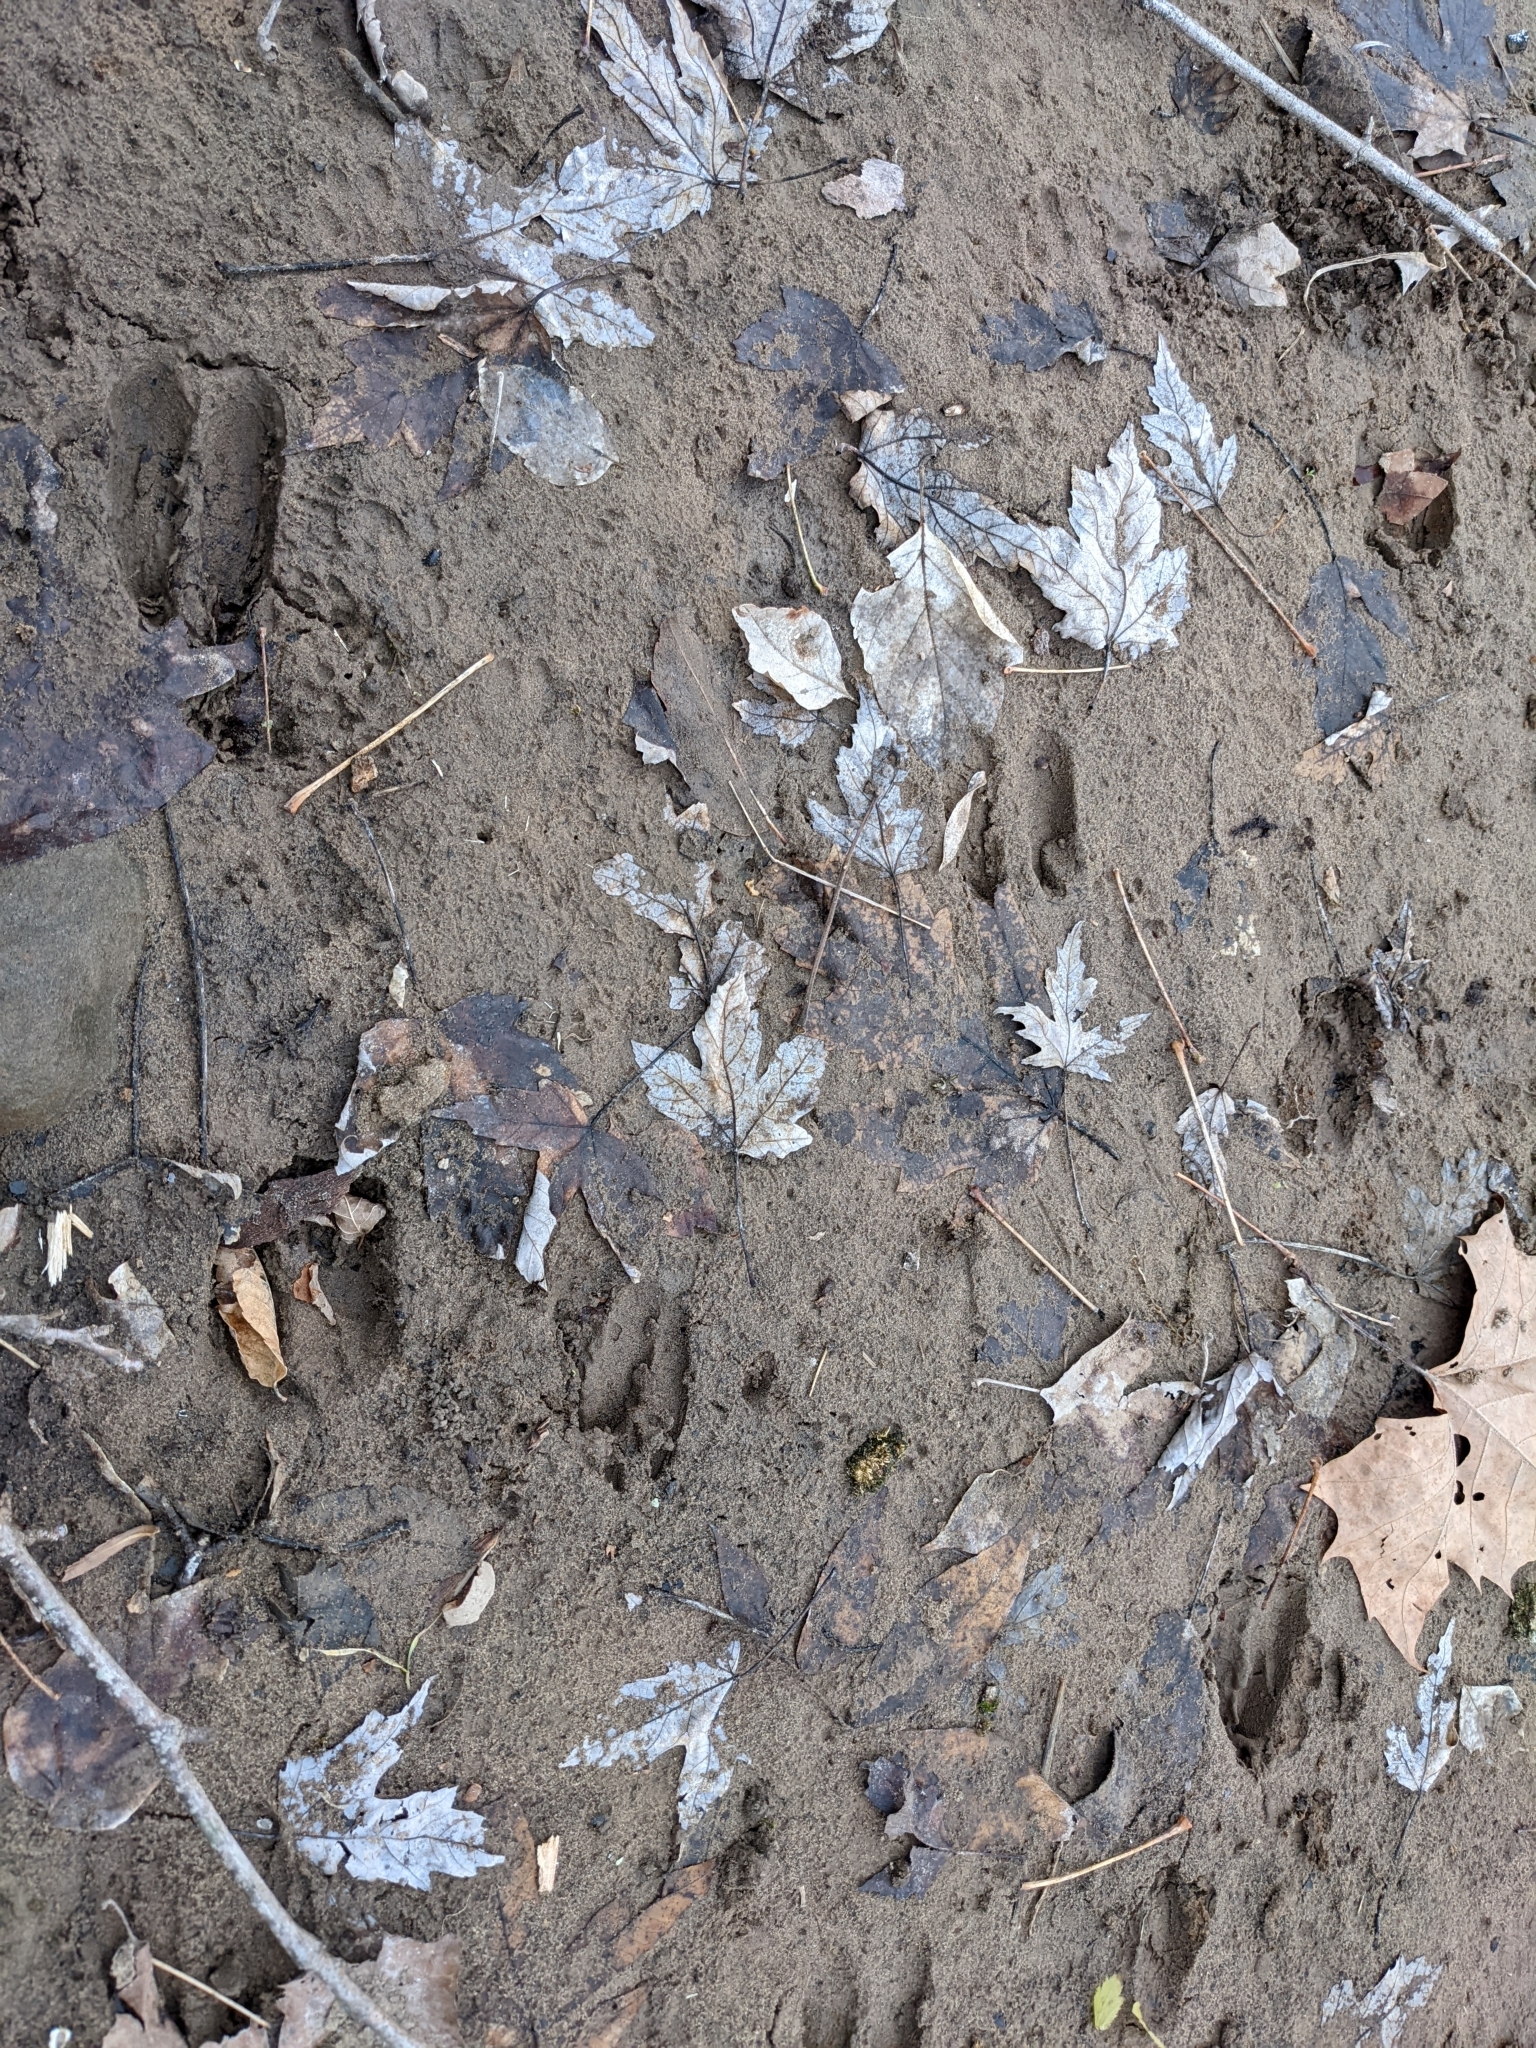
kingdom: Animalia
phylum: Chordata
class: Mammalia
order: Artiodactyla
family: Cervidae
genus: Odocoileus
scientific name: Odocoileus virginianus
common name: White-tailed deer
